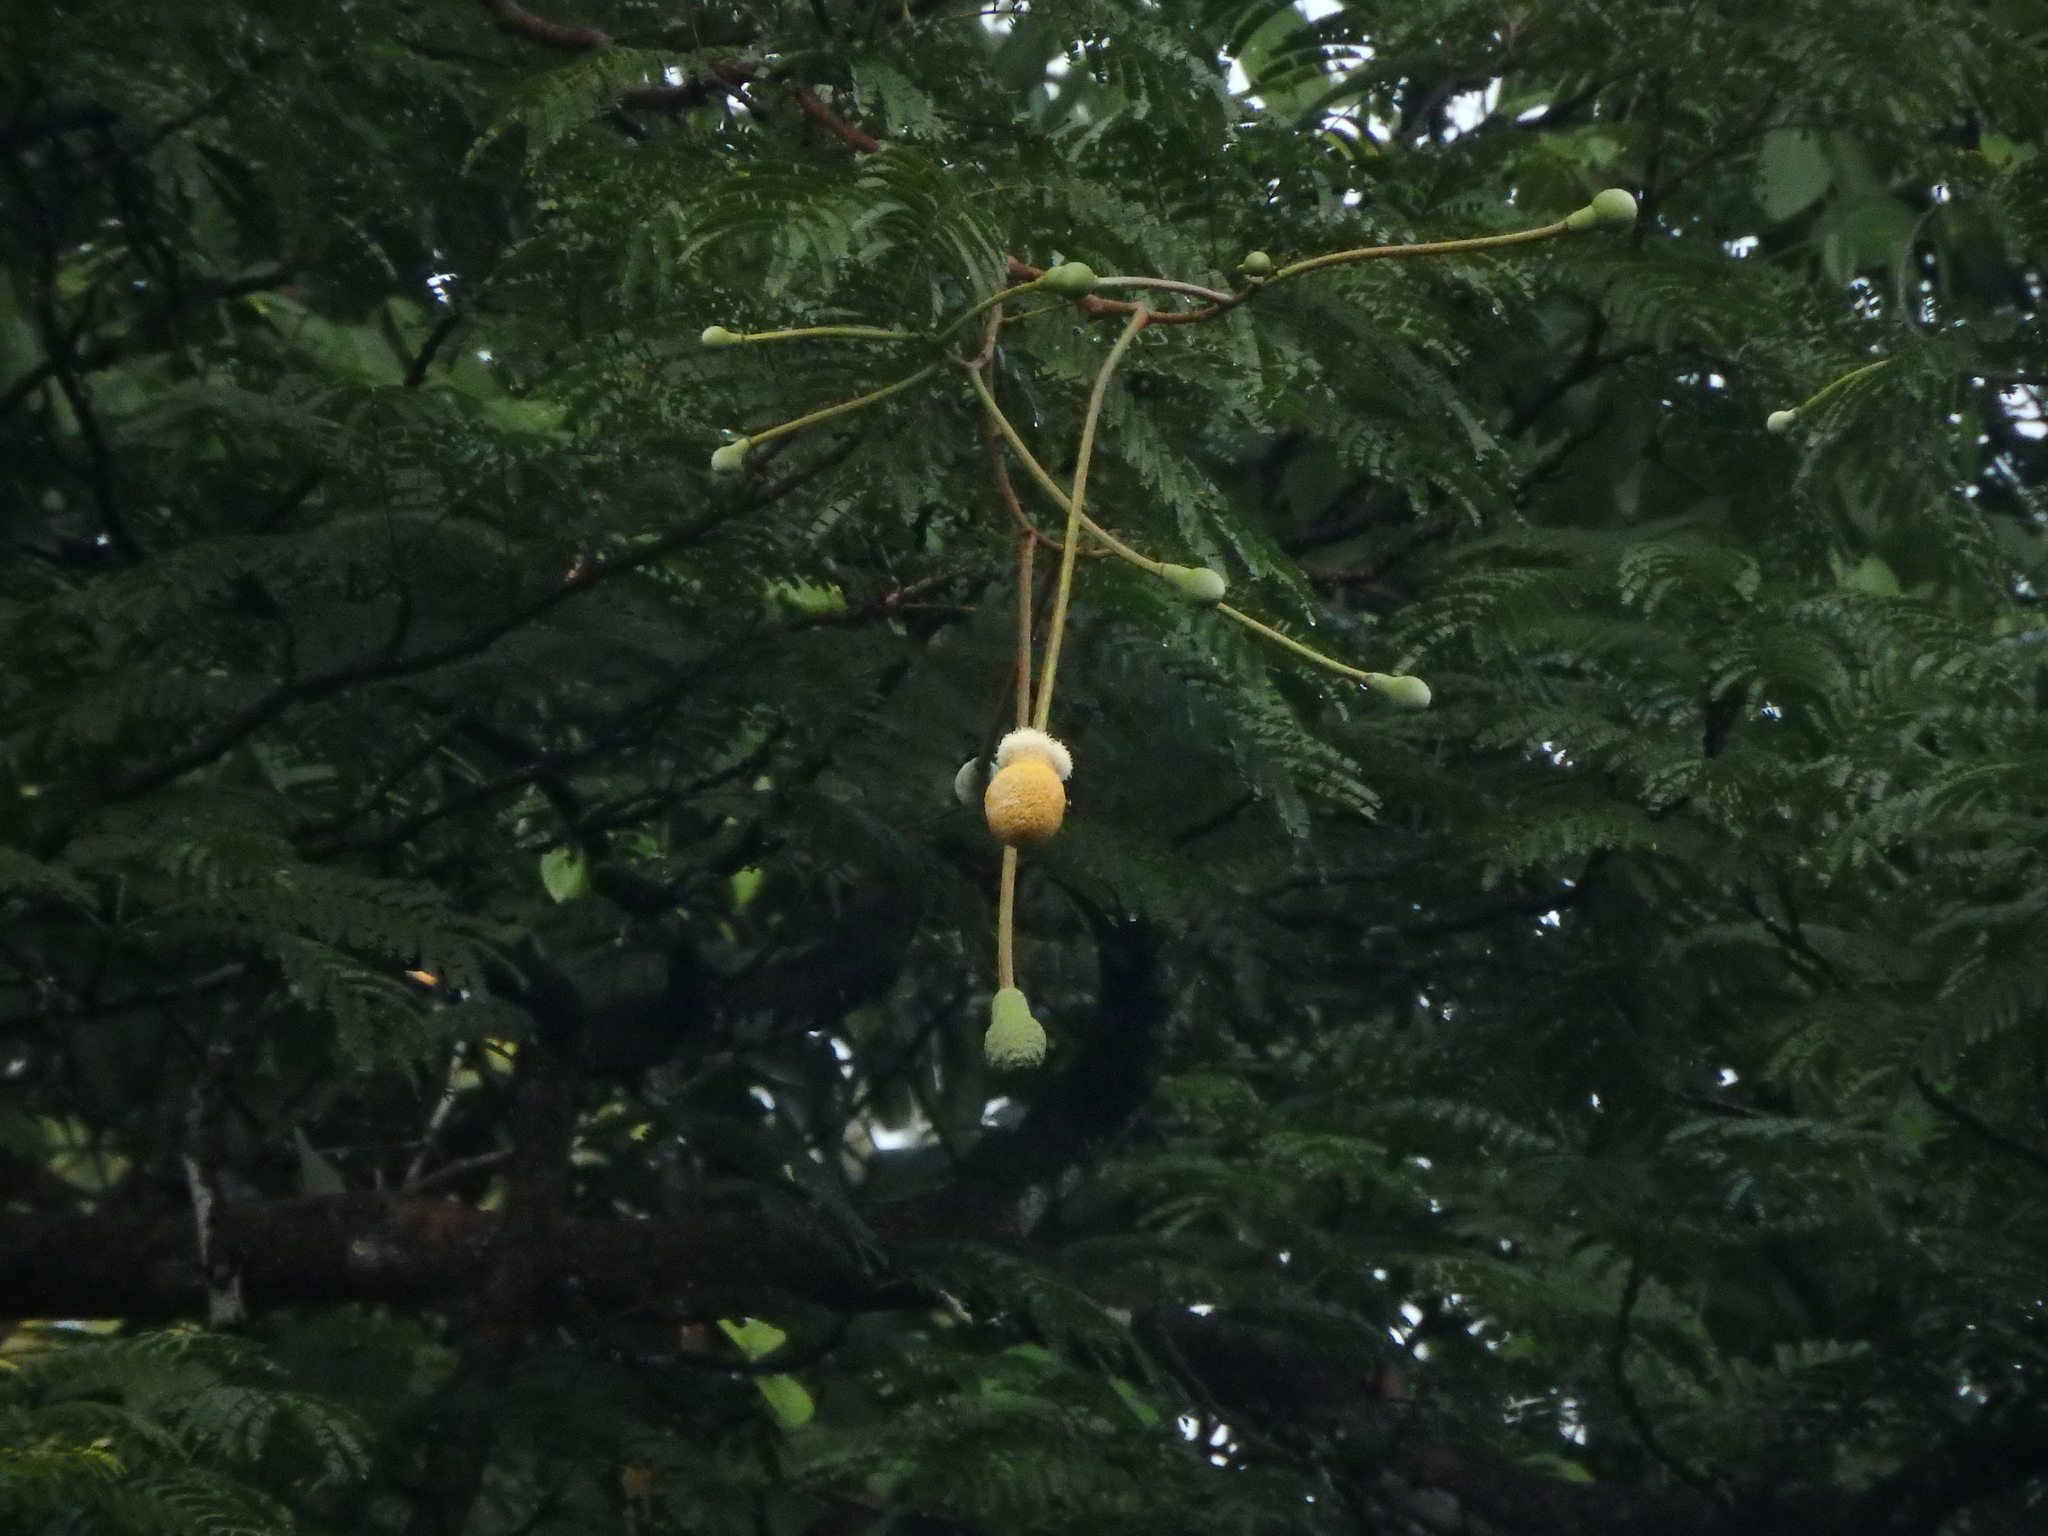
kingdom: Plantae
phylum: Tracheophyta
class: Magnoliopsida
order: Fabales
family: Fabaceae
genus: Parkia
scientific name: Parkia speciosa
